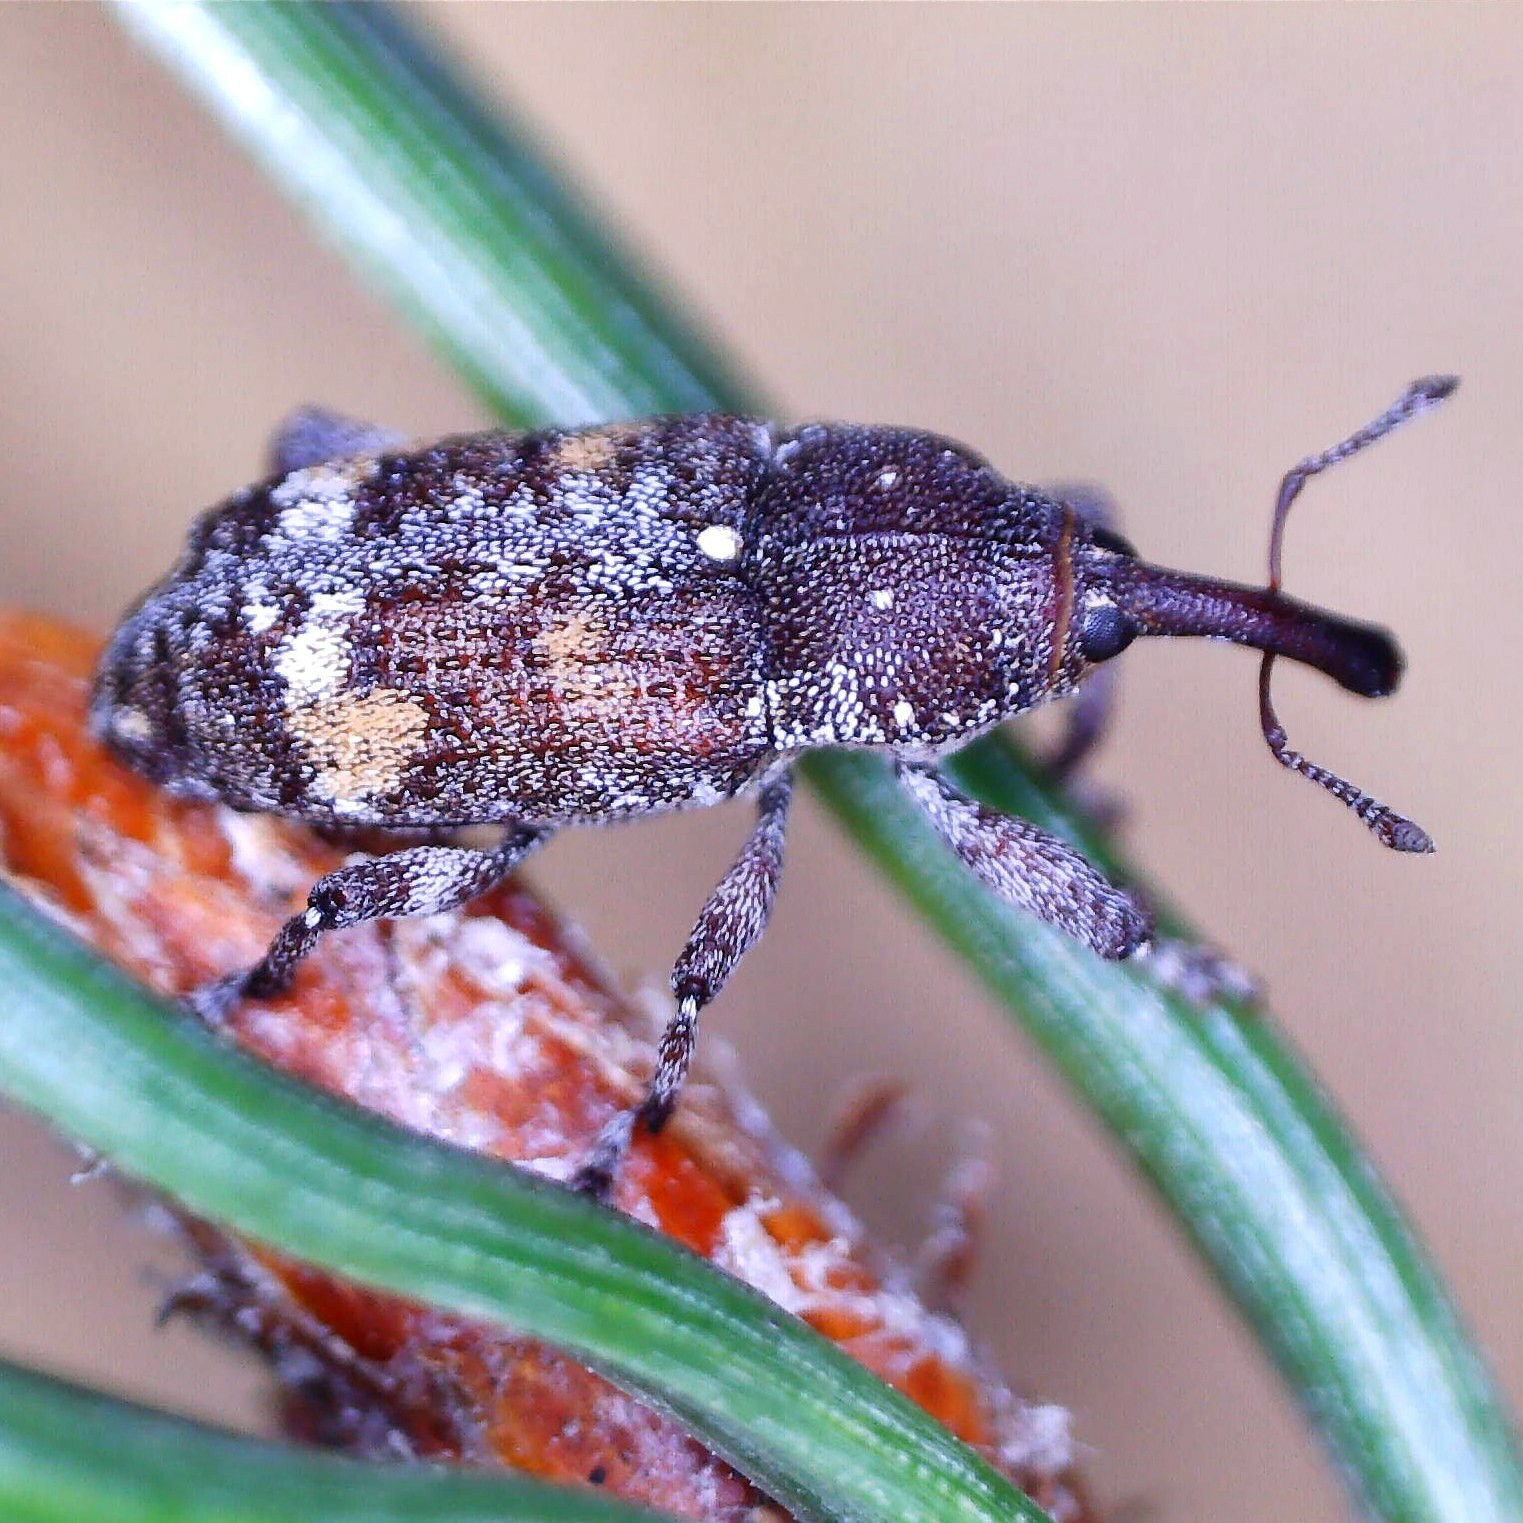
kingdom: Animalia
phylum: Arthropoda
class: Insecta
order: Coleoptera
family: Curculionidae
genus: Pissodes
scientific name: Pissodes castaneus
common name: Banded pine weevil
